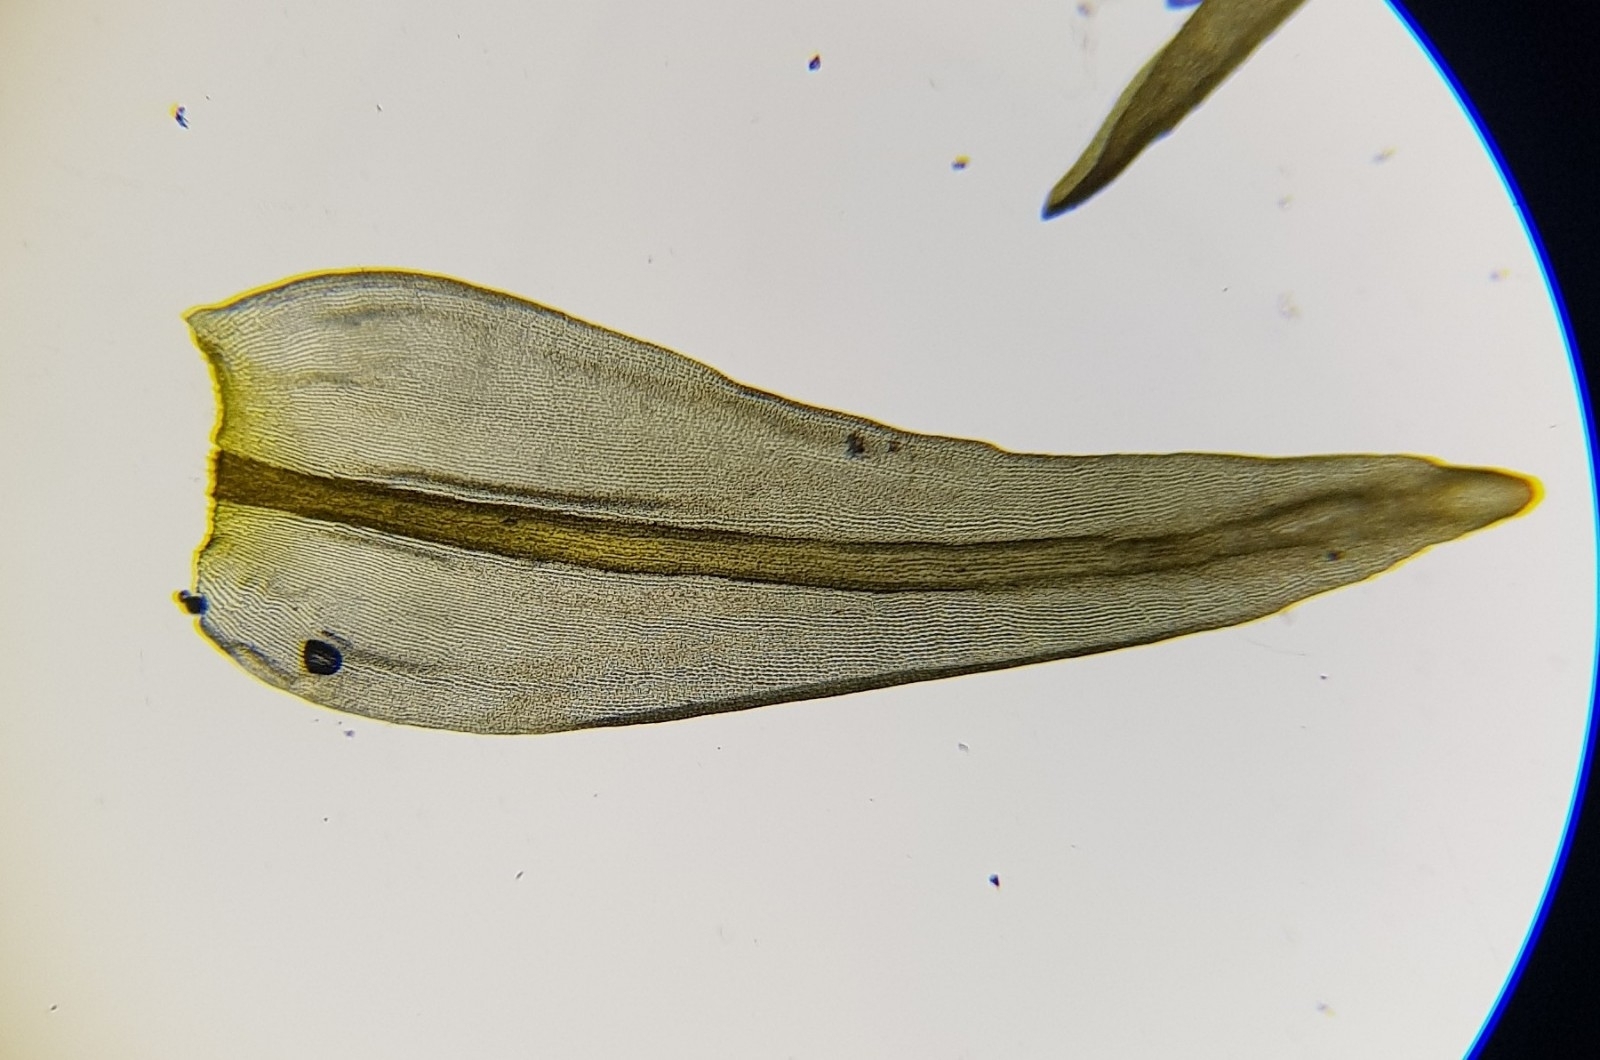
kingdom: Plantae
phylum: Bryophyta
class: Bryopsida
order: Grimmiales
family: Grimmiaceae
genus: Codriophorus
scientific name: Codriophorus acicularis
